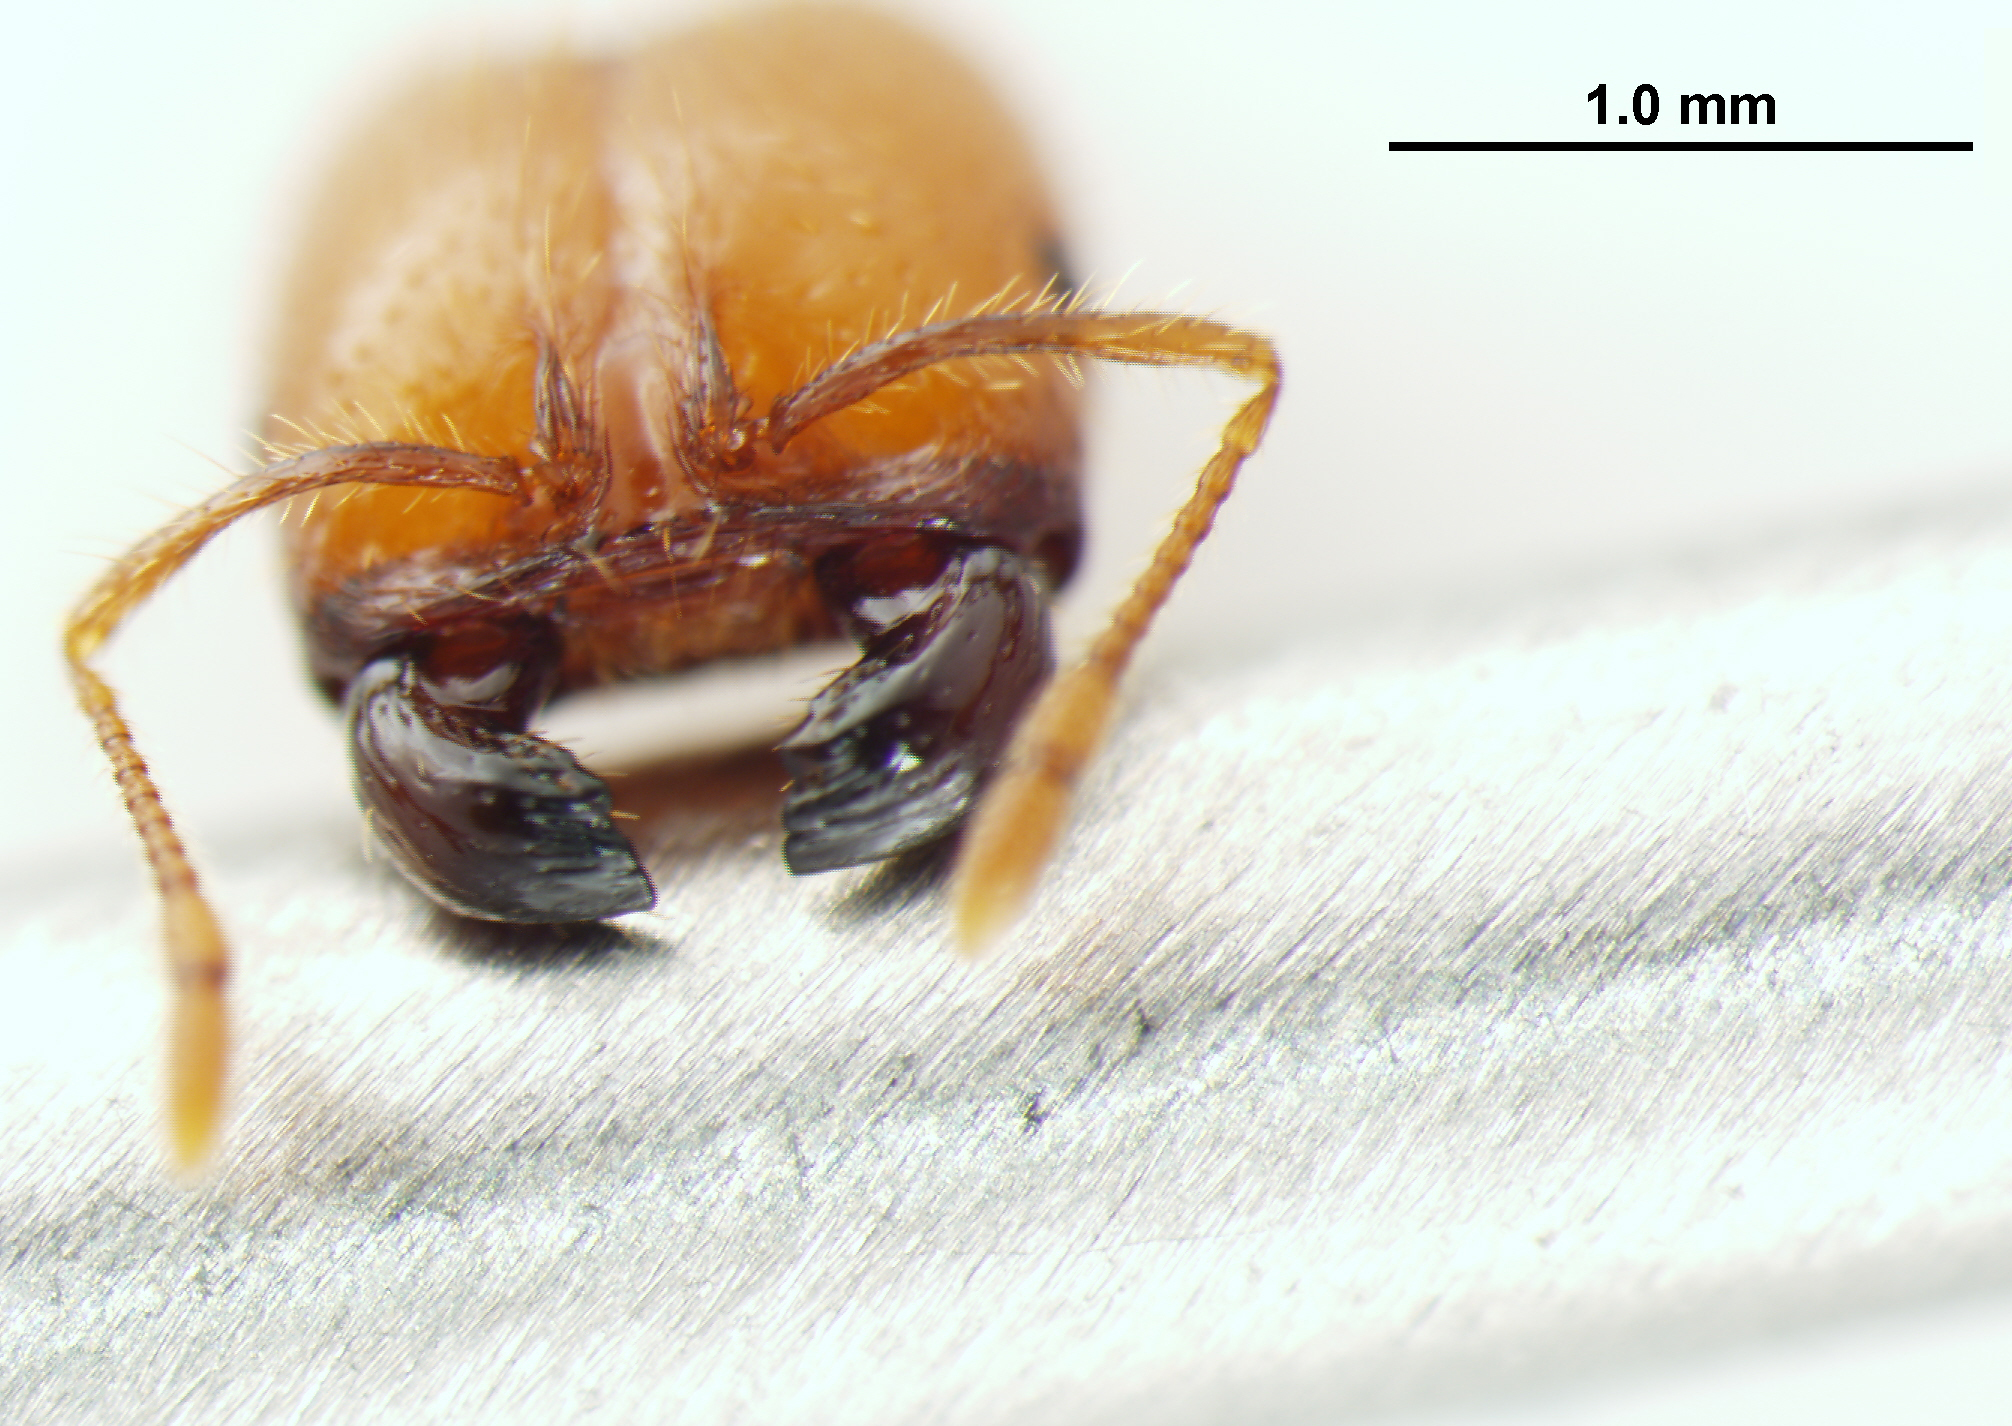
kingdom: Animalia
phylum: Arthropoda
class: Insecta
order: Hymenoptera
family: Formicidae
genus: Solenopsis
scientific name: Solenopsis geminata
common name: Tropical fire ant
